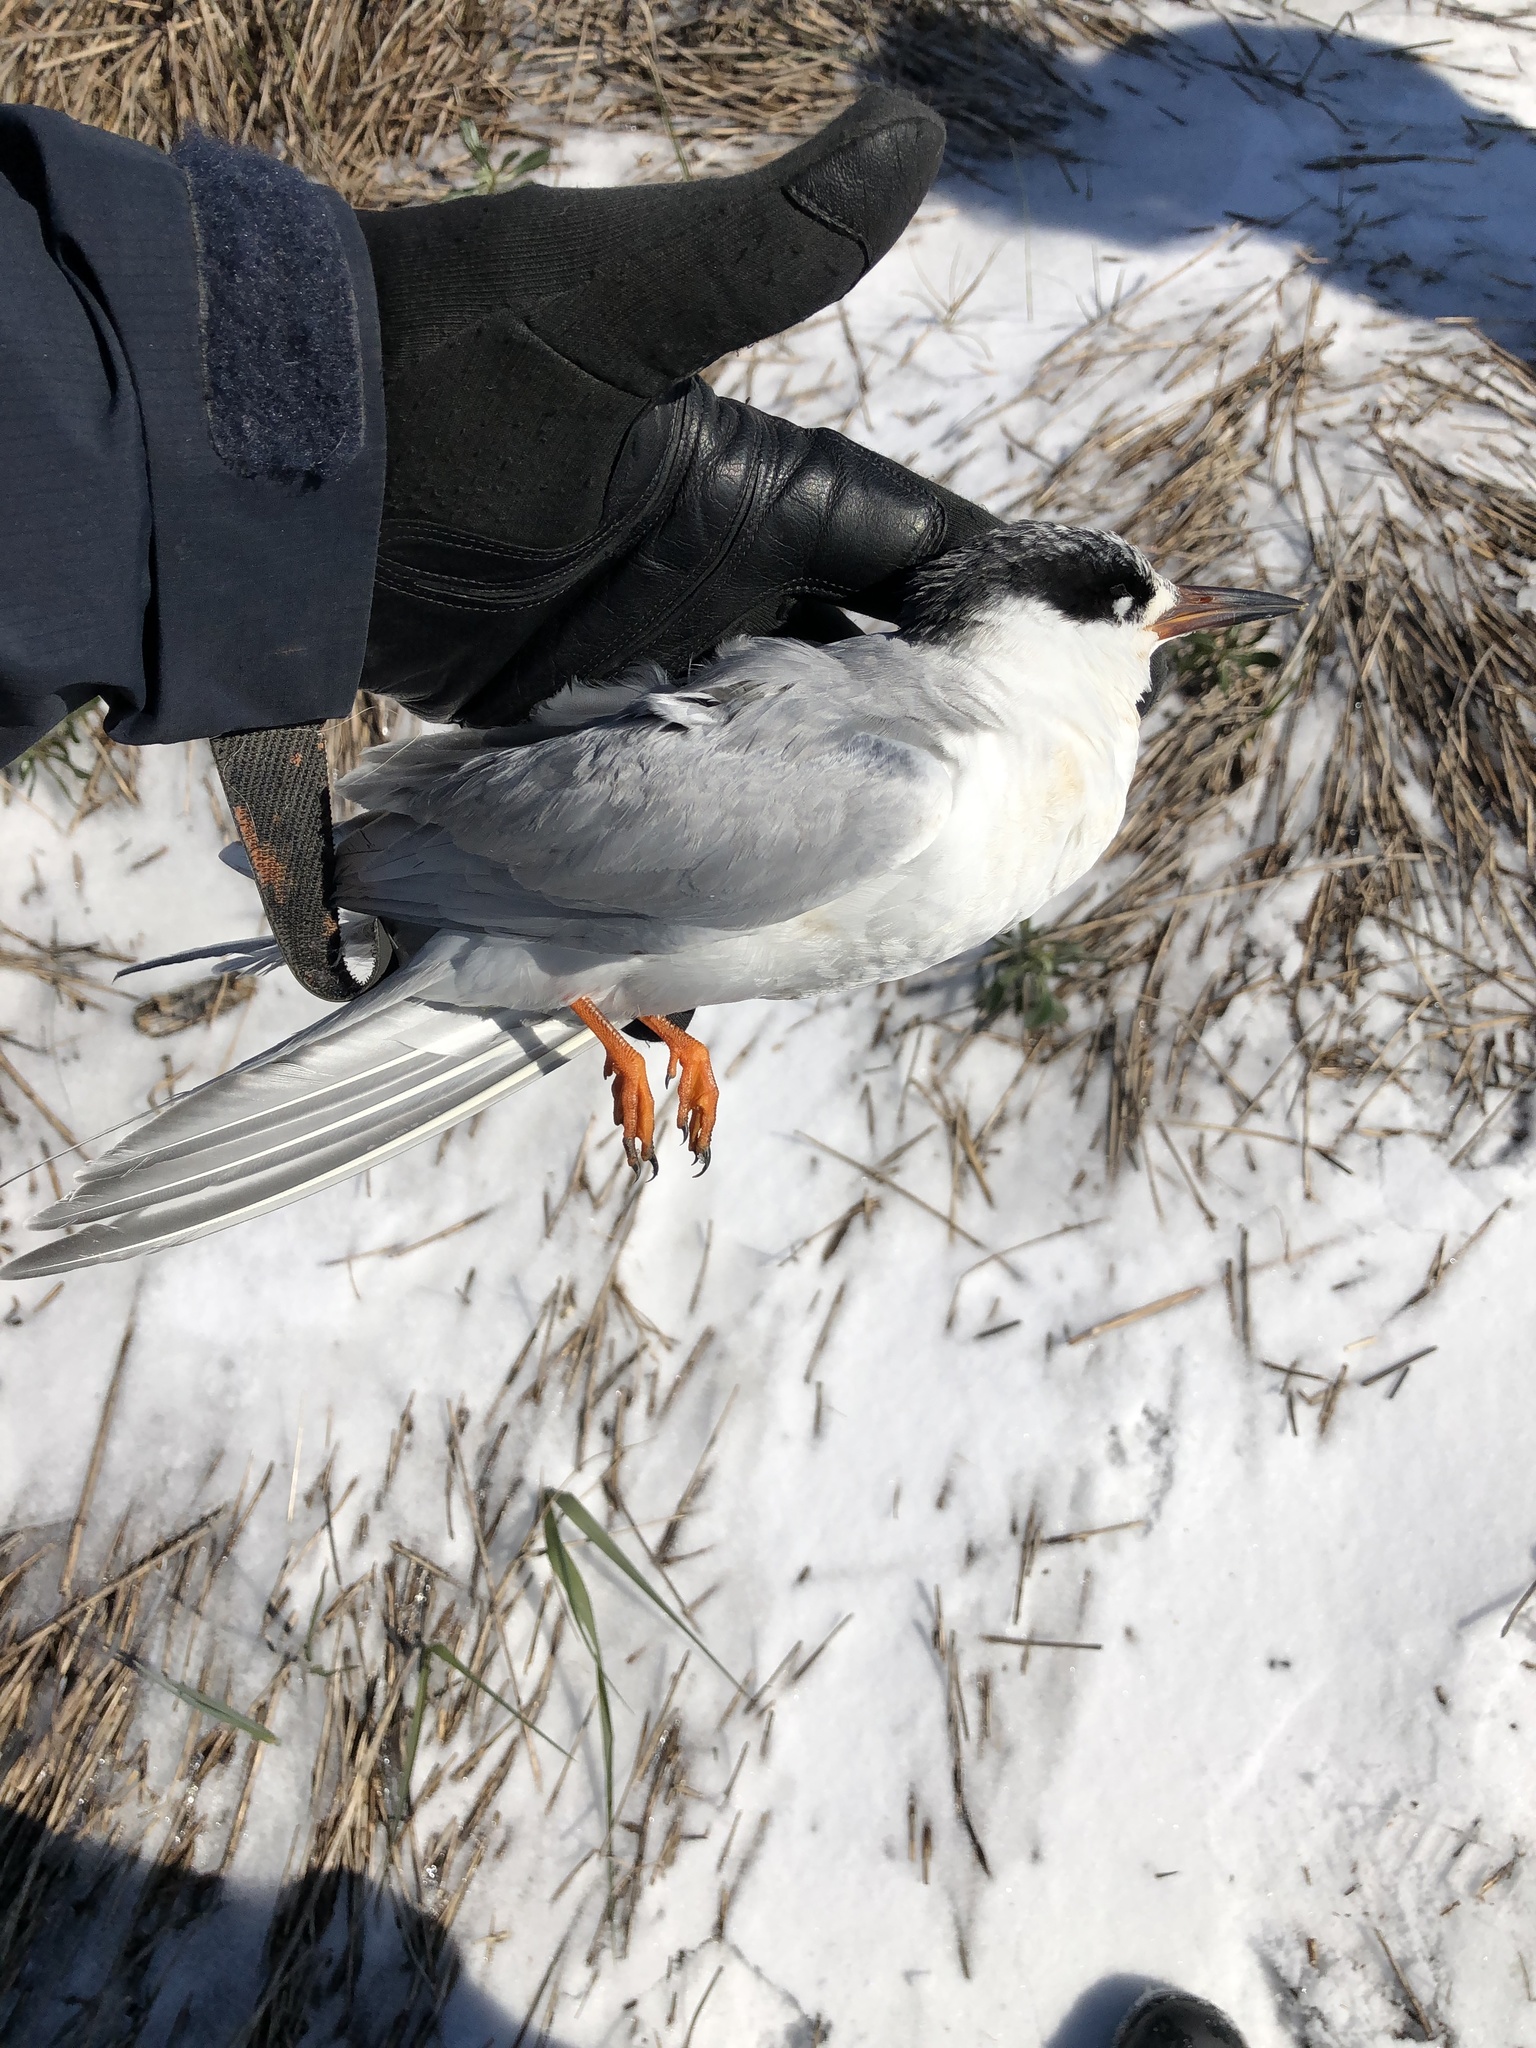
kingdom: Animalia
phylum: Chordata
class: Aves
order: Charadriiformes
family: Laridae
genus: Sterna
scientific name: Sterna forsteri
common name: Forster's tern
